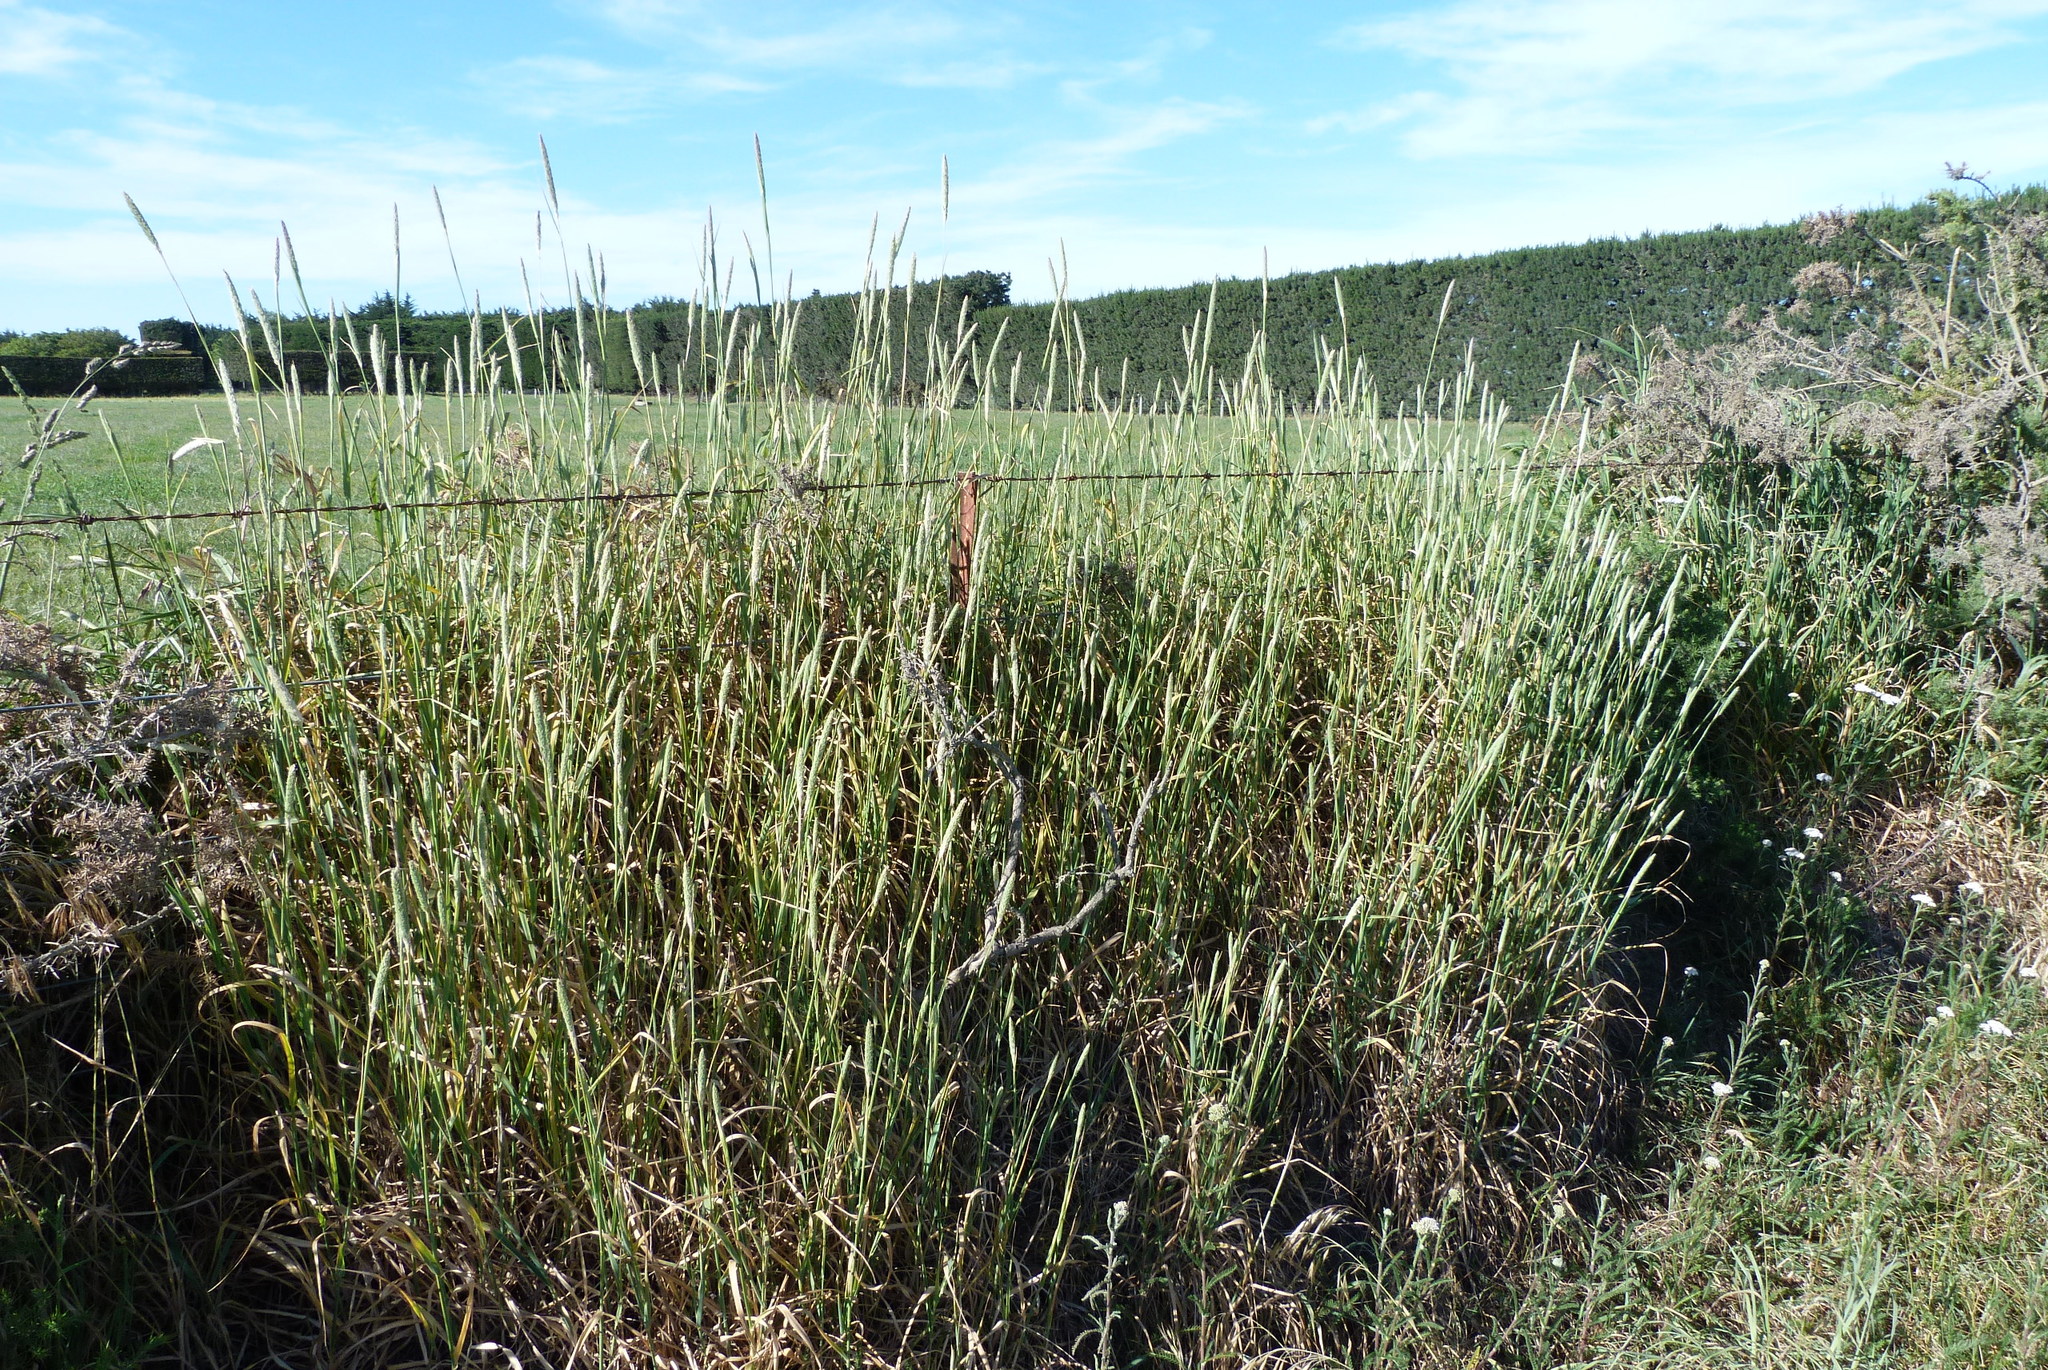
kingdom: Plantae
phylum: Tracheophyta
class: Liliopsida
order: Poales
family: Poaceae
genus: Phleum
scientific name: Phleum pratense
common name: Timothy grass
